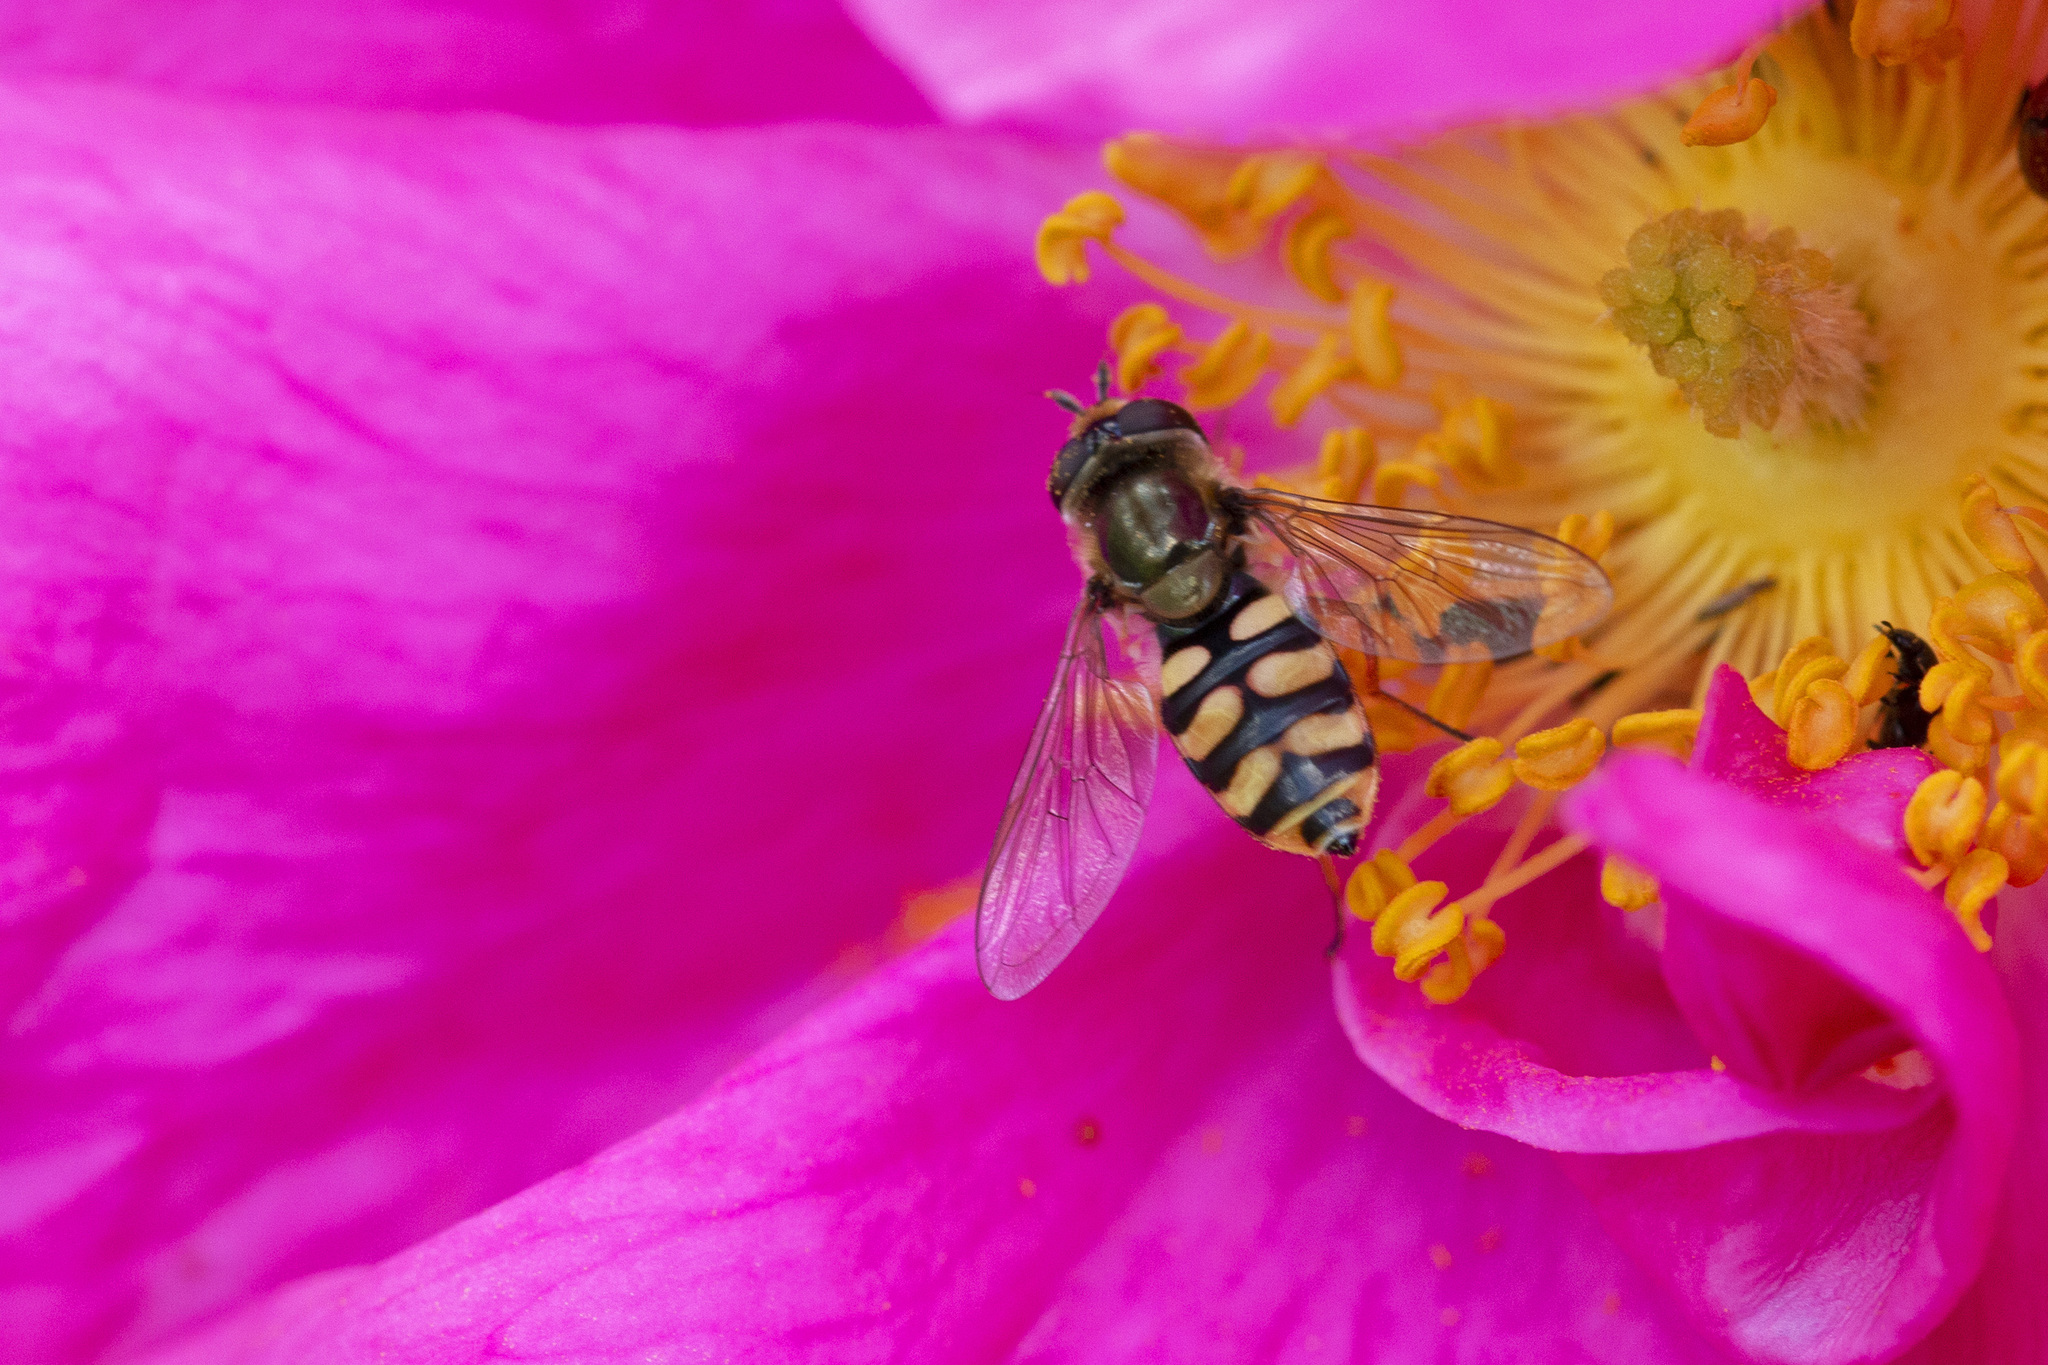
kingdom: Animalia
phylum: Arthropoda
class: Insecta
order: Diptera
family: Syrphidae
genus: Eupeodes
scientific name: Eupeodes corollae
